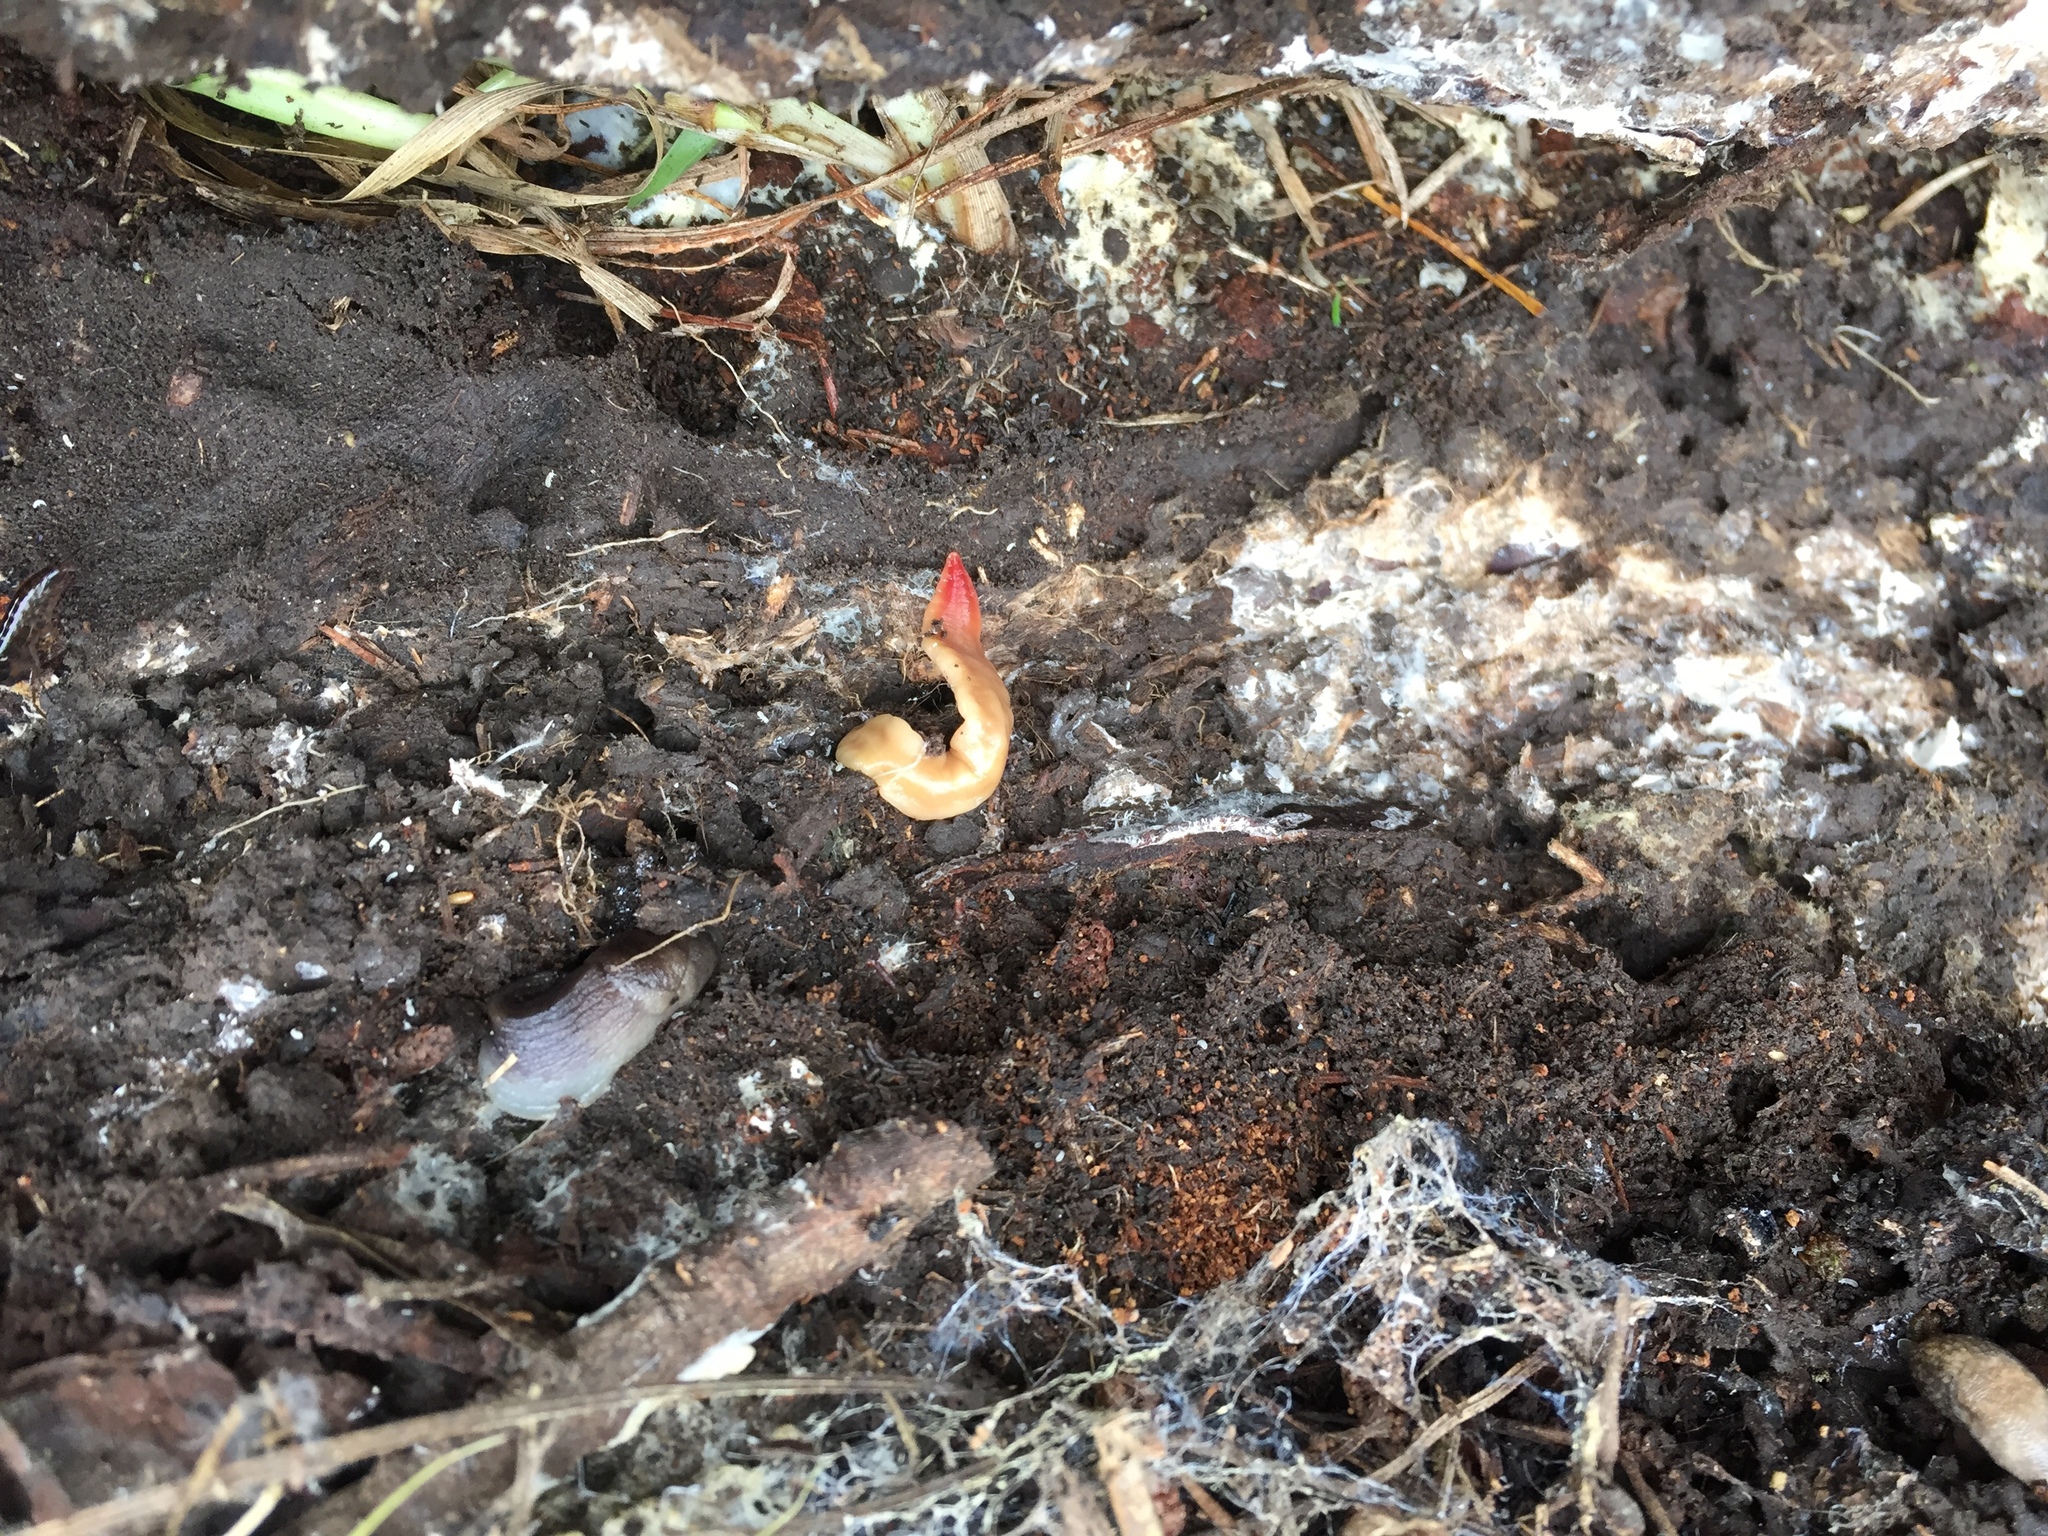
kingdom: Animalia
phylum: Platyhelminthes
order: Tricladida
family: Geoplanidae
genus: Australoplana
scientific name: Australoplana sanguinea
